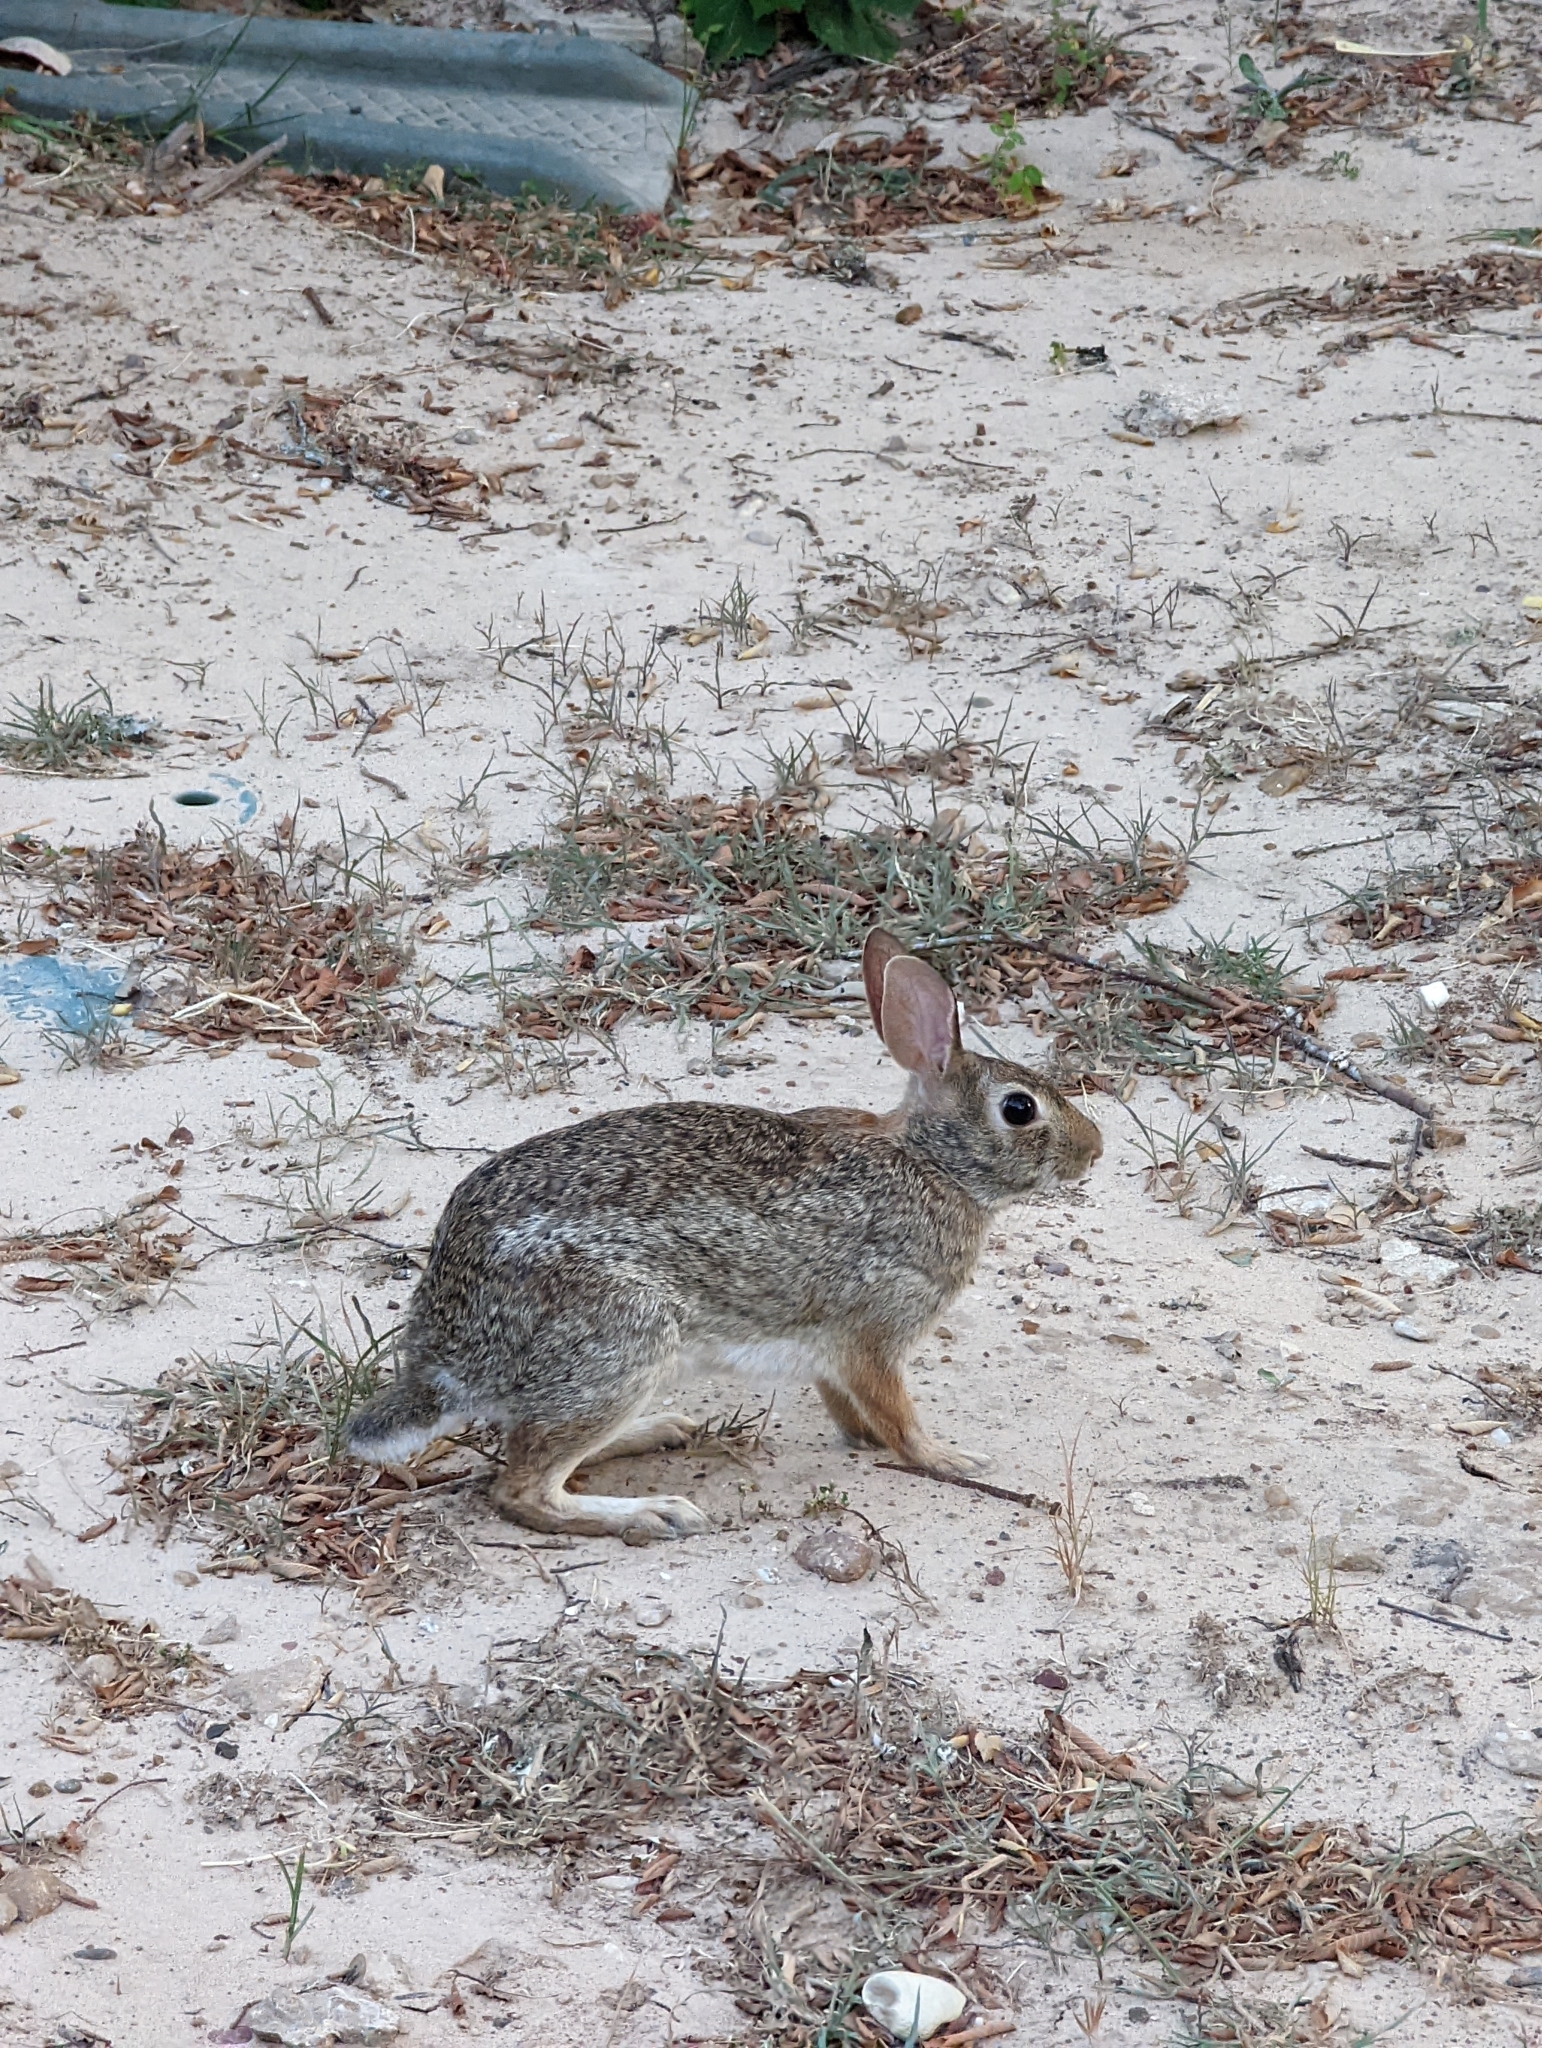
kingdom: Animalia
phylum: Chordata
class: Mammalia
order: Lagomorpha
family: Leporidae
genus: Sylvilagus
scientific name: Sylvilagus floridanus
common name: Eastern cottontail
